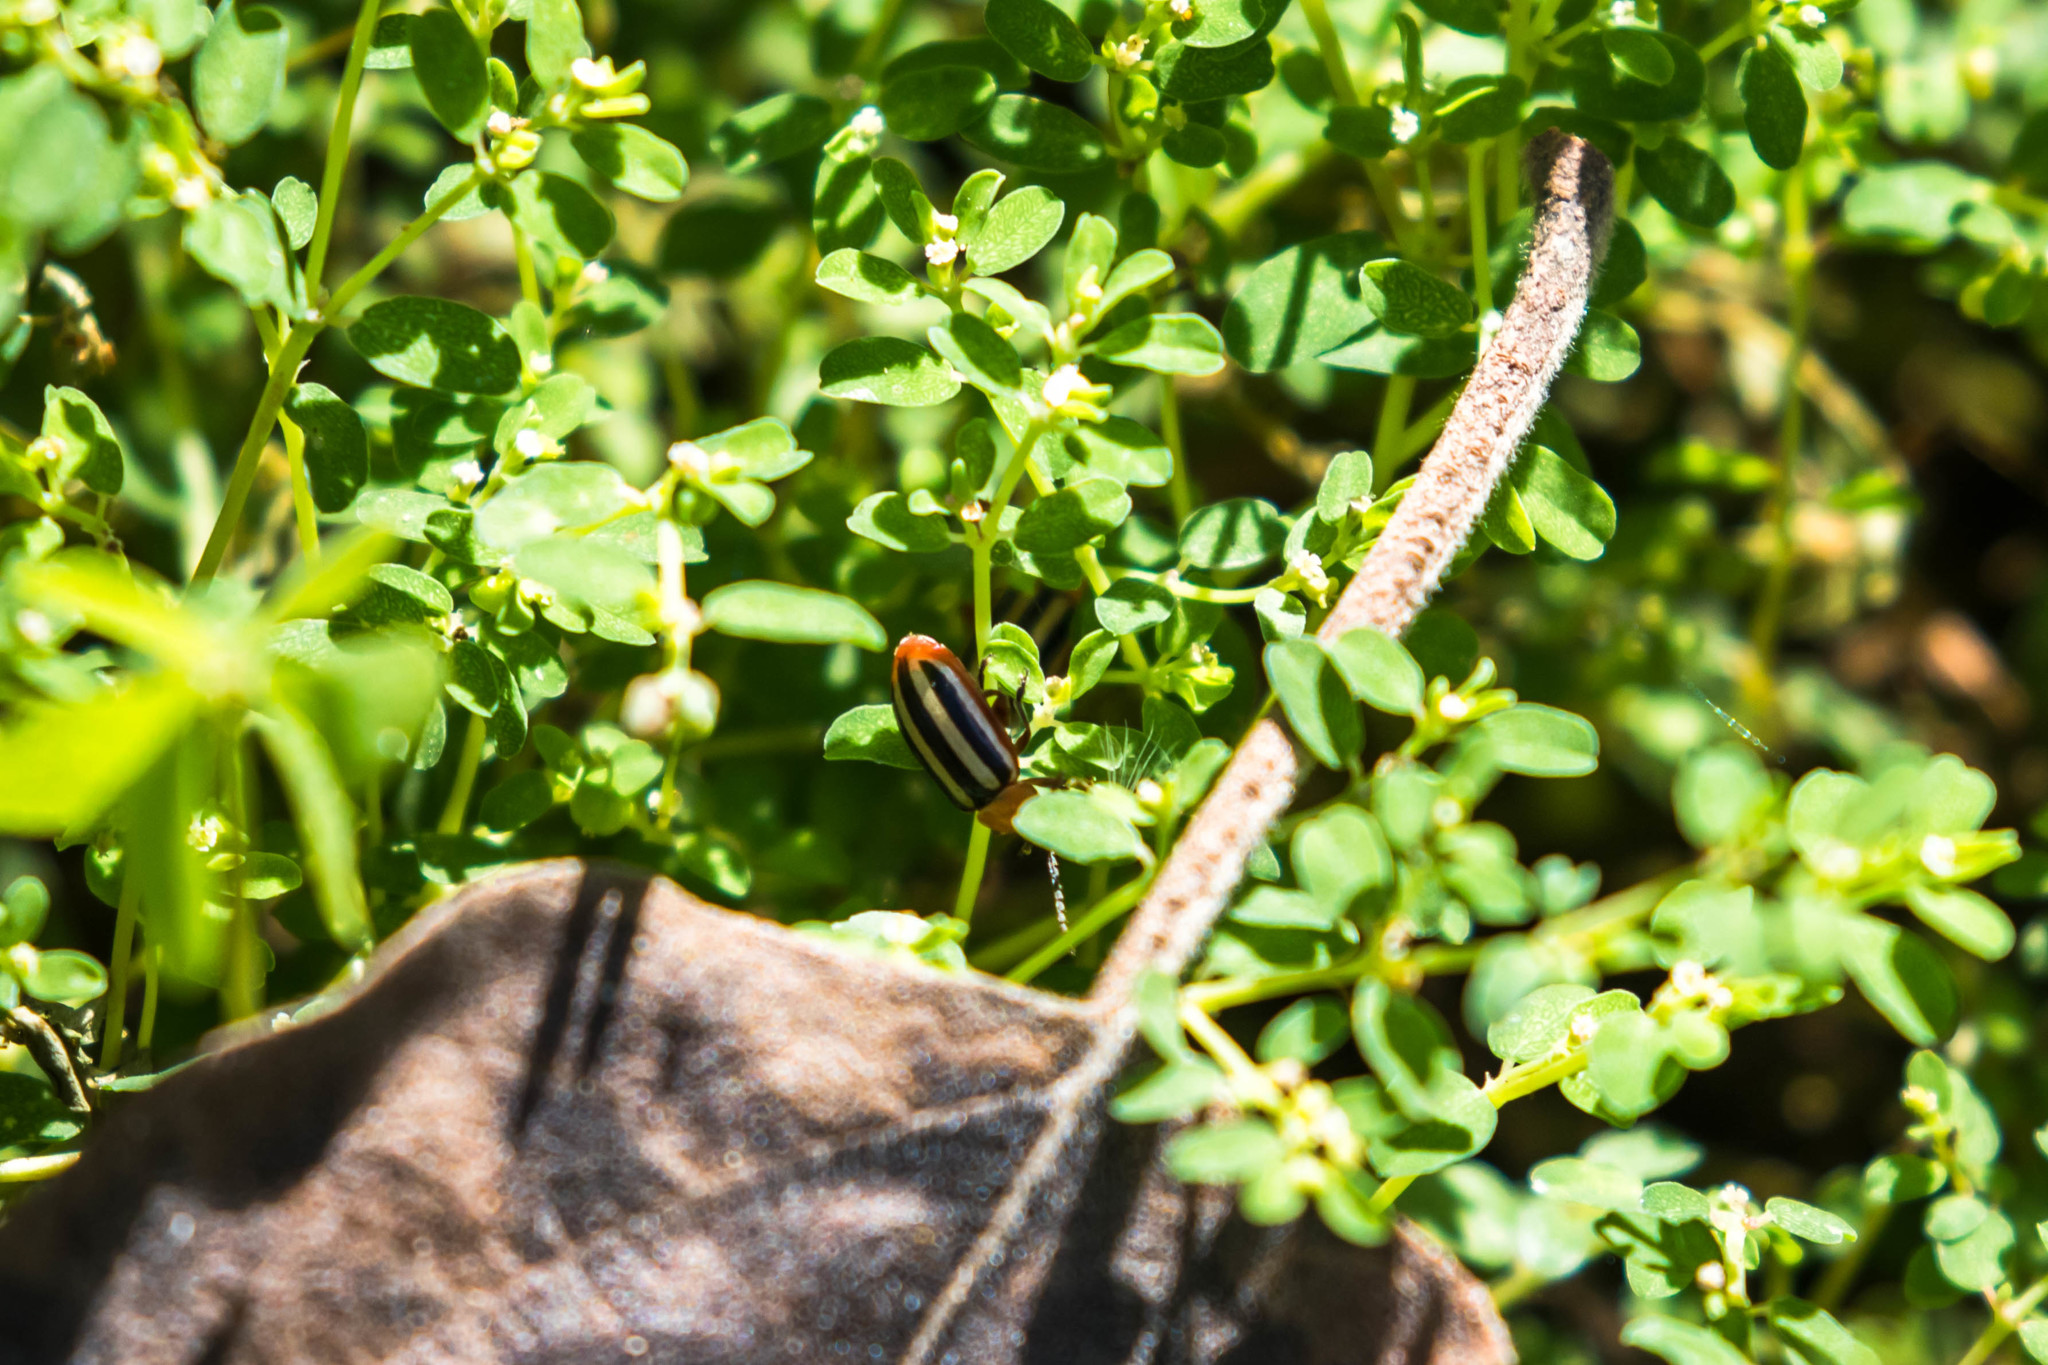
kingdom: Animalia
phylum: Arthropoda
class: Insecta
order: Coleoptera
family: Chrysomelidae
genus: Disonycha
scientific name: Disonycha leptolineata
